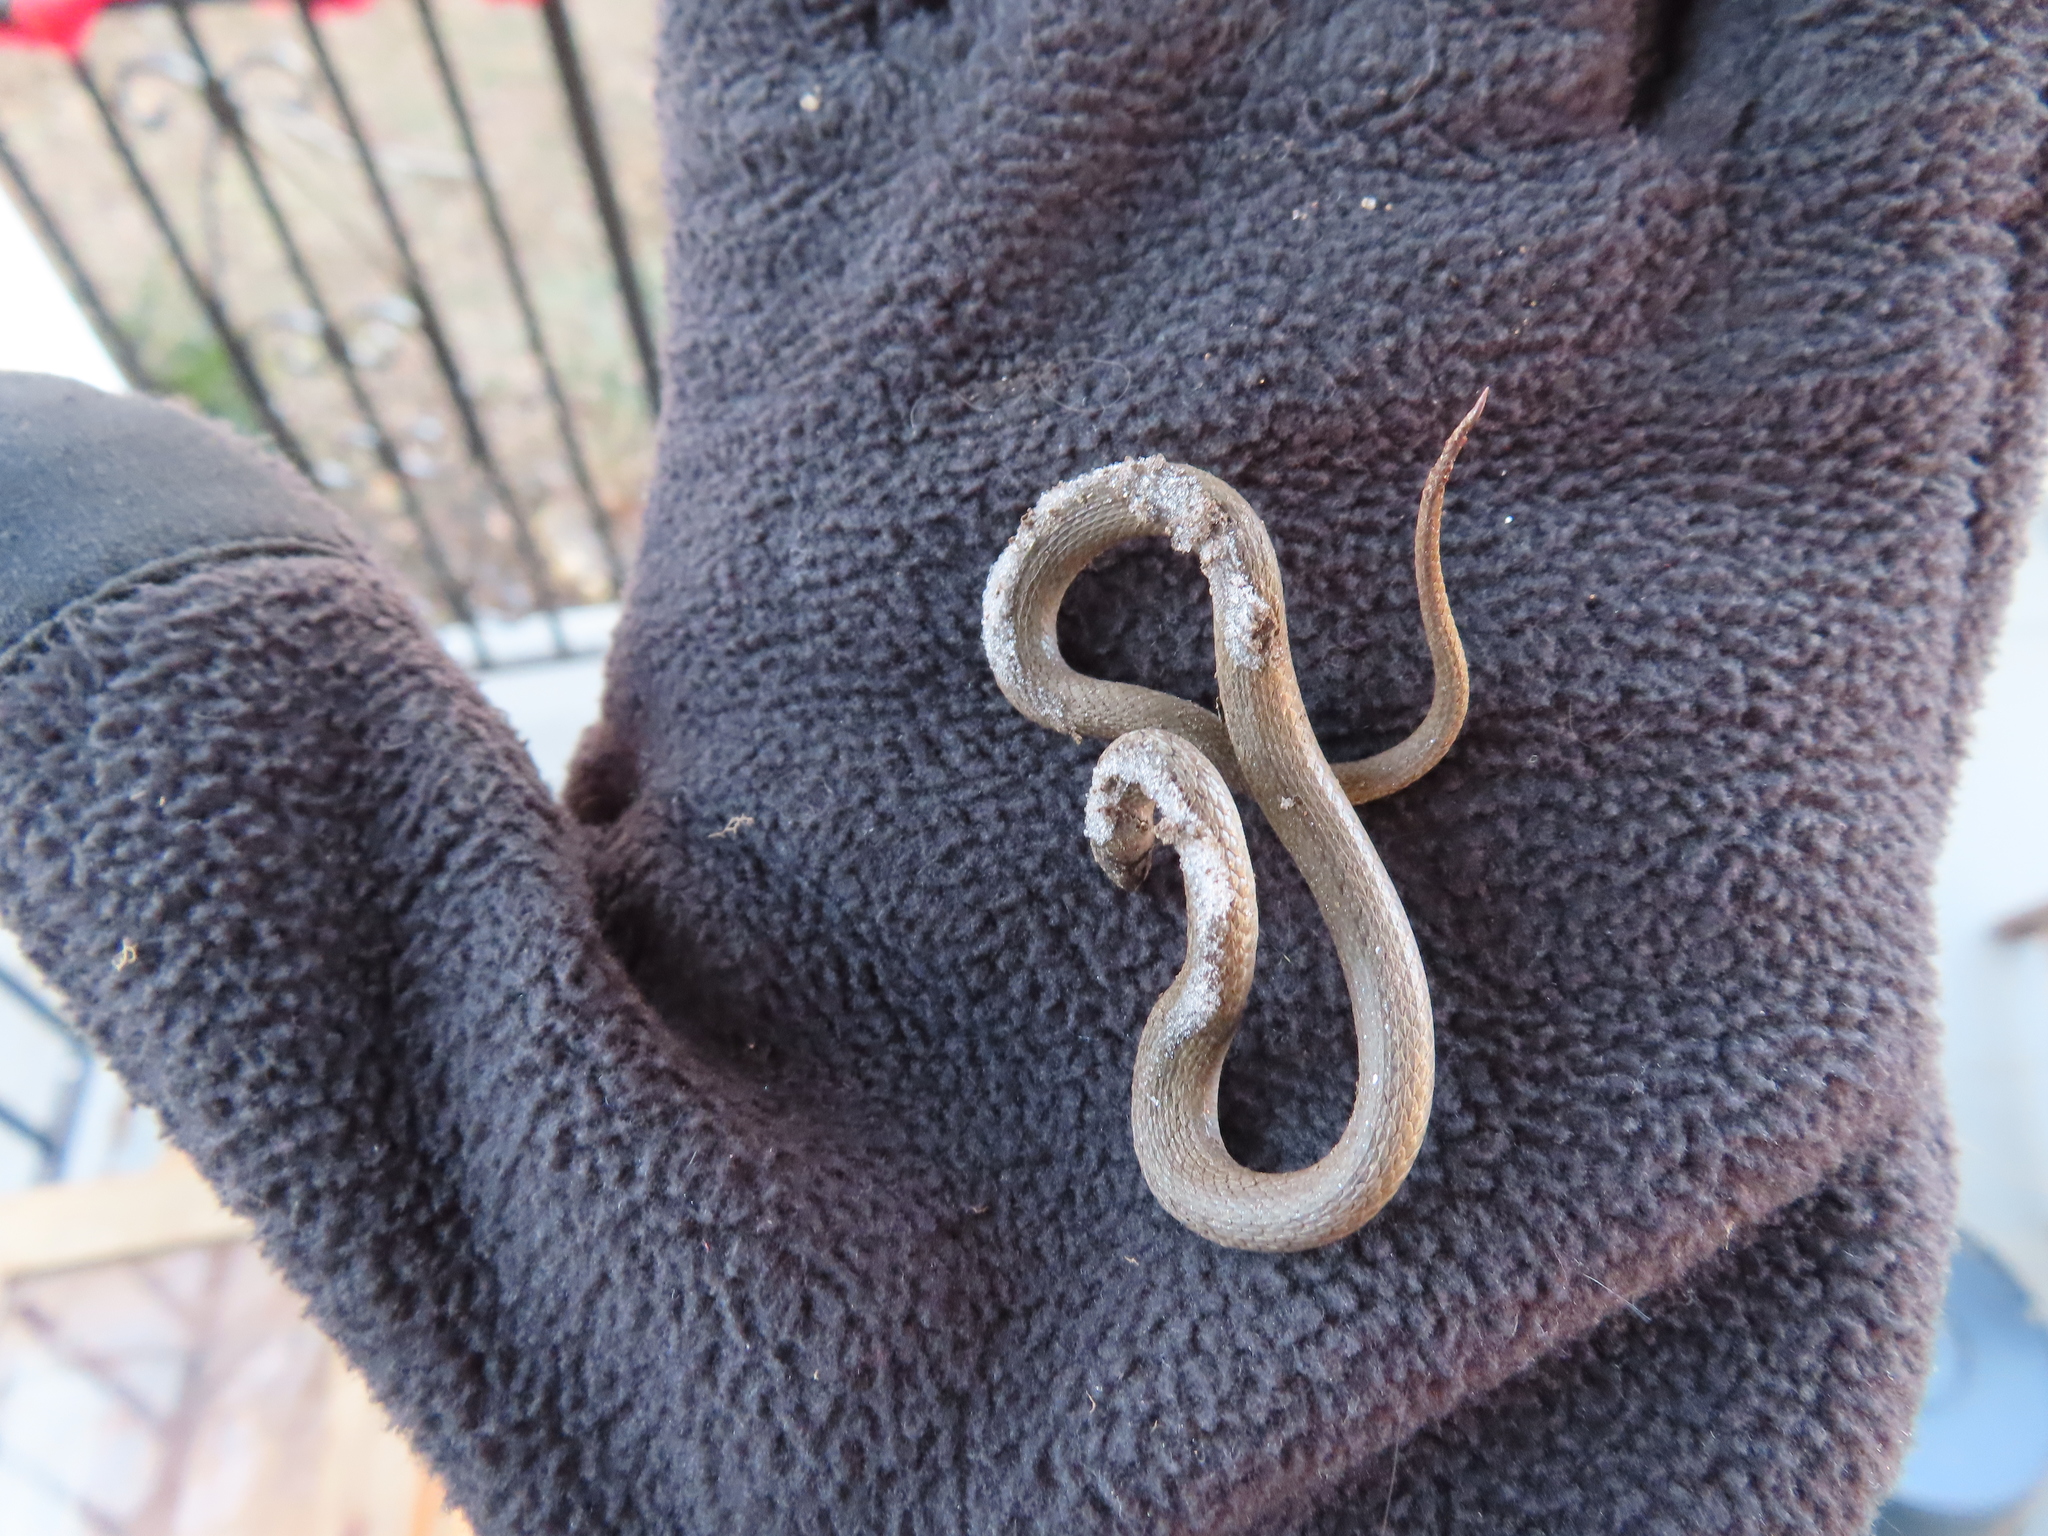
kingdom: Animalia
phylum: Chordata
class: Squamata
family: Colubridae
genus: Storeria
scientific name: Storeria dekayi
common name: (dekay’s) brown snake
